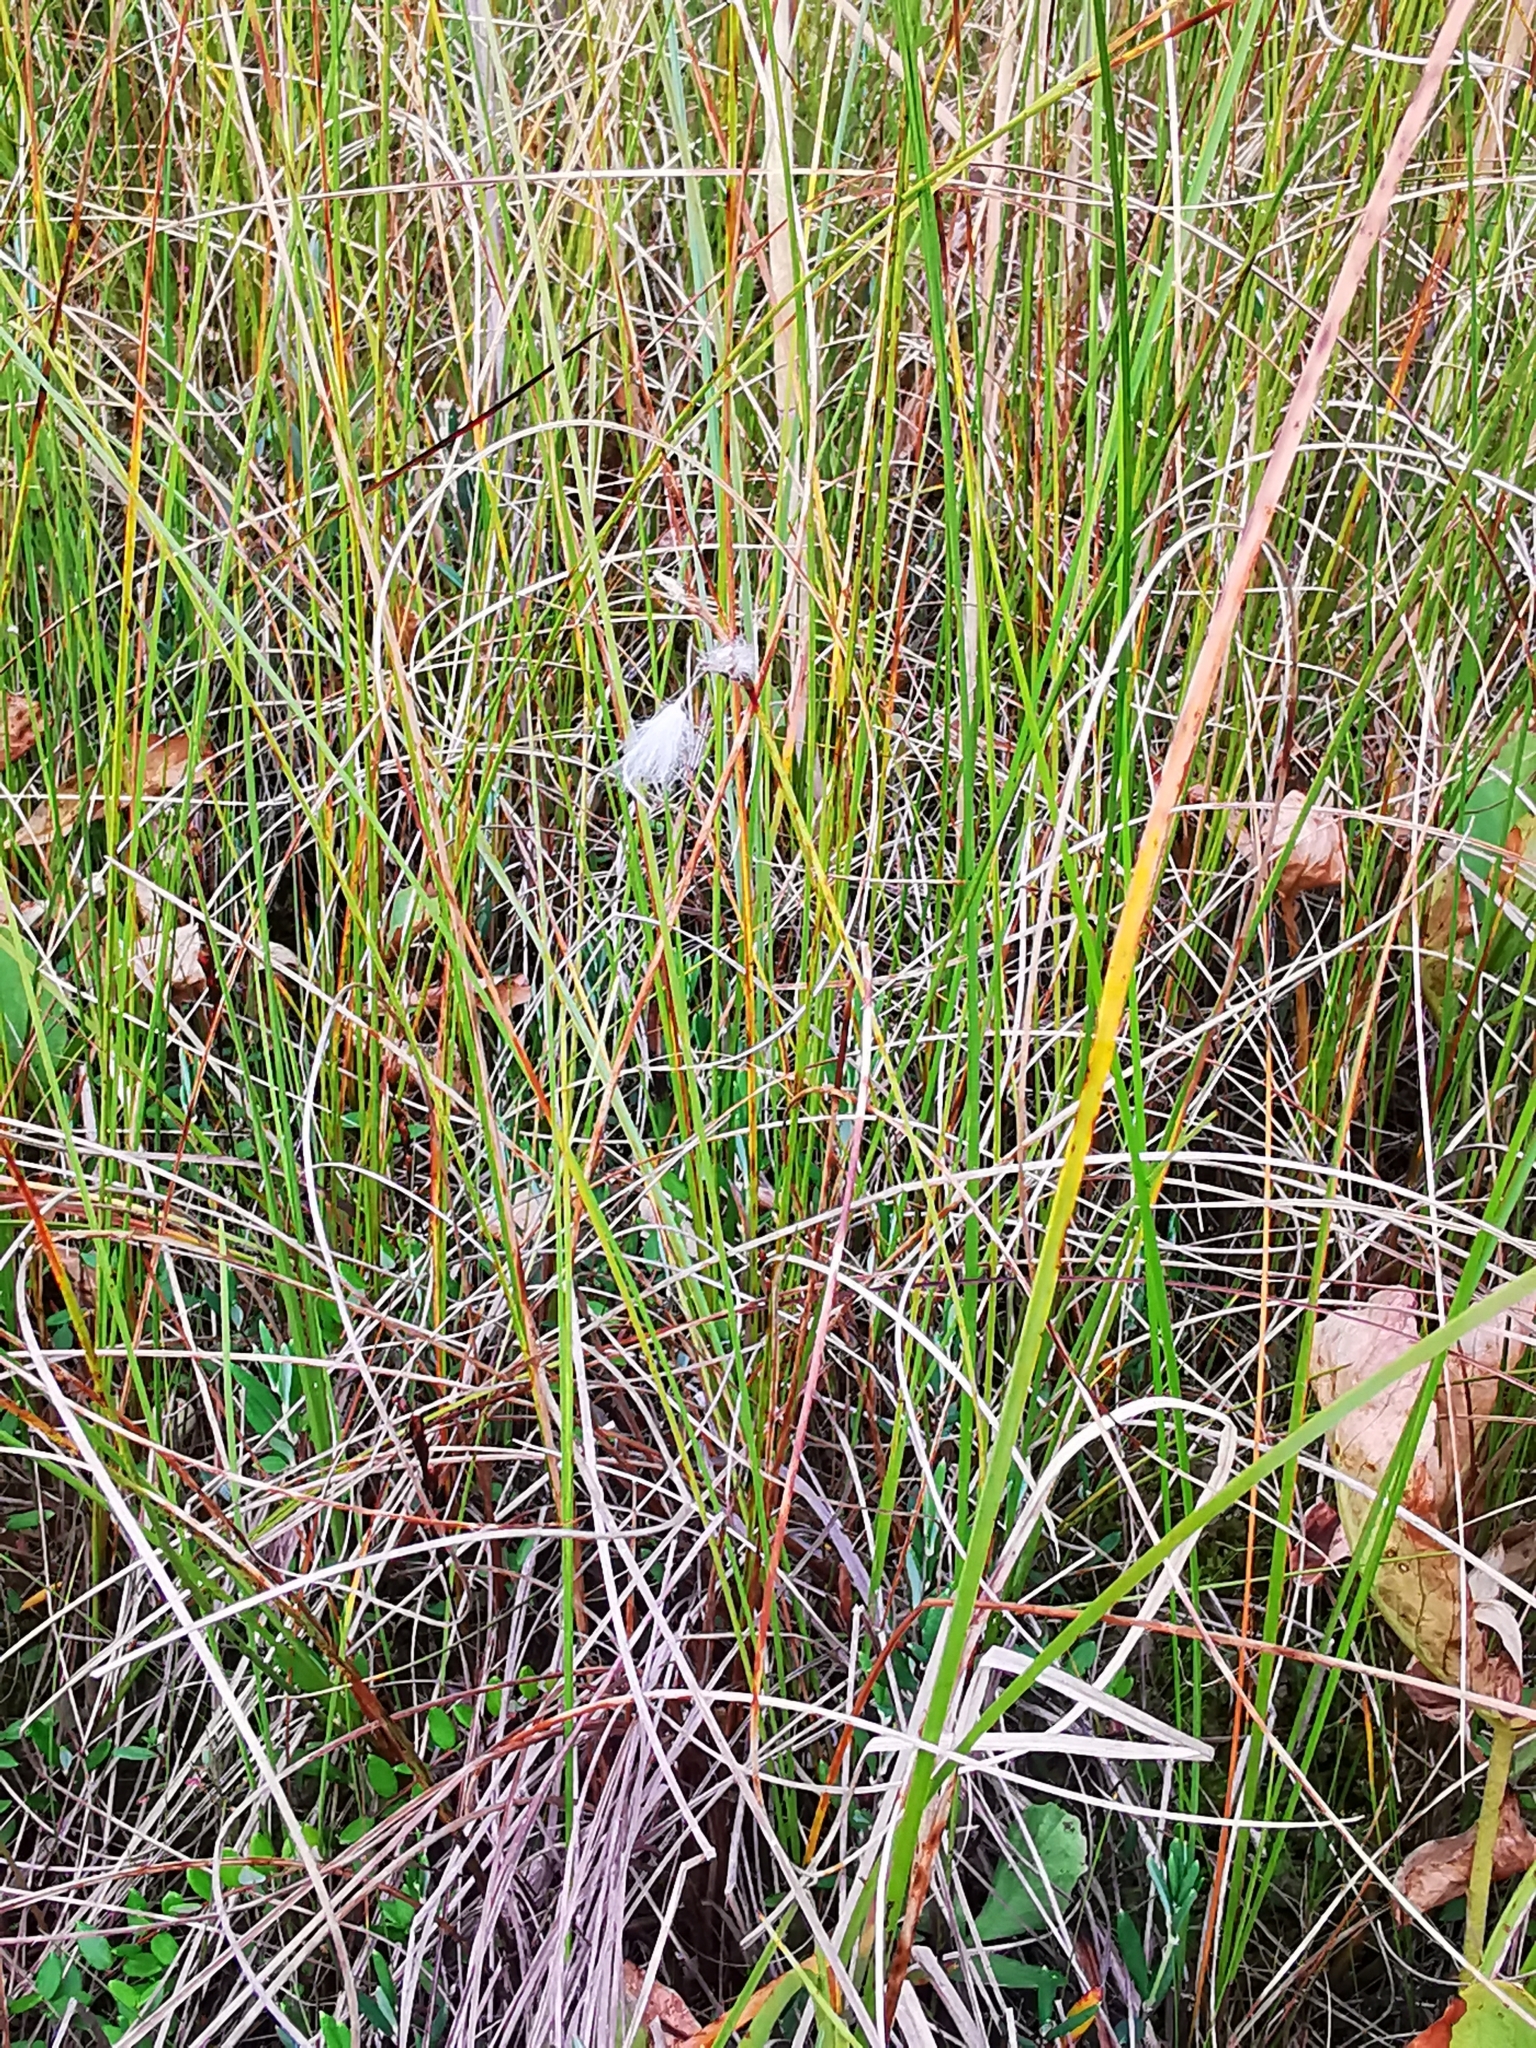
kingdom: Plantae
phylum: Tracheophyta
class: Liliopsida
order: Poales
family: Cyperaceae
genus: Eriophorum
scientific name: Eriophorum gracile
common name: Slender cottongrass
